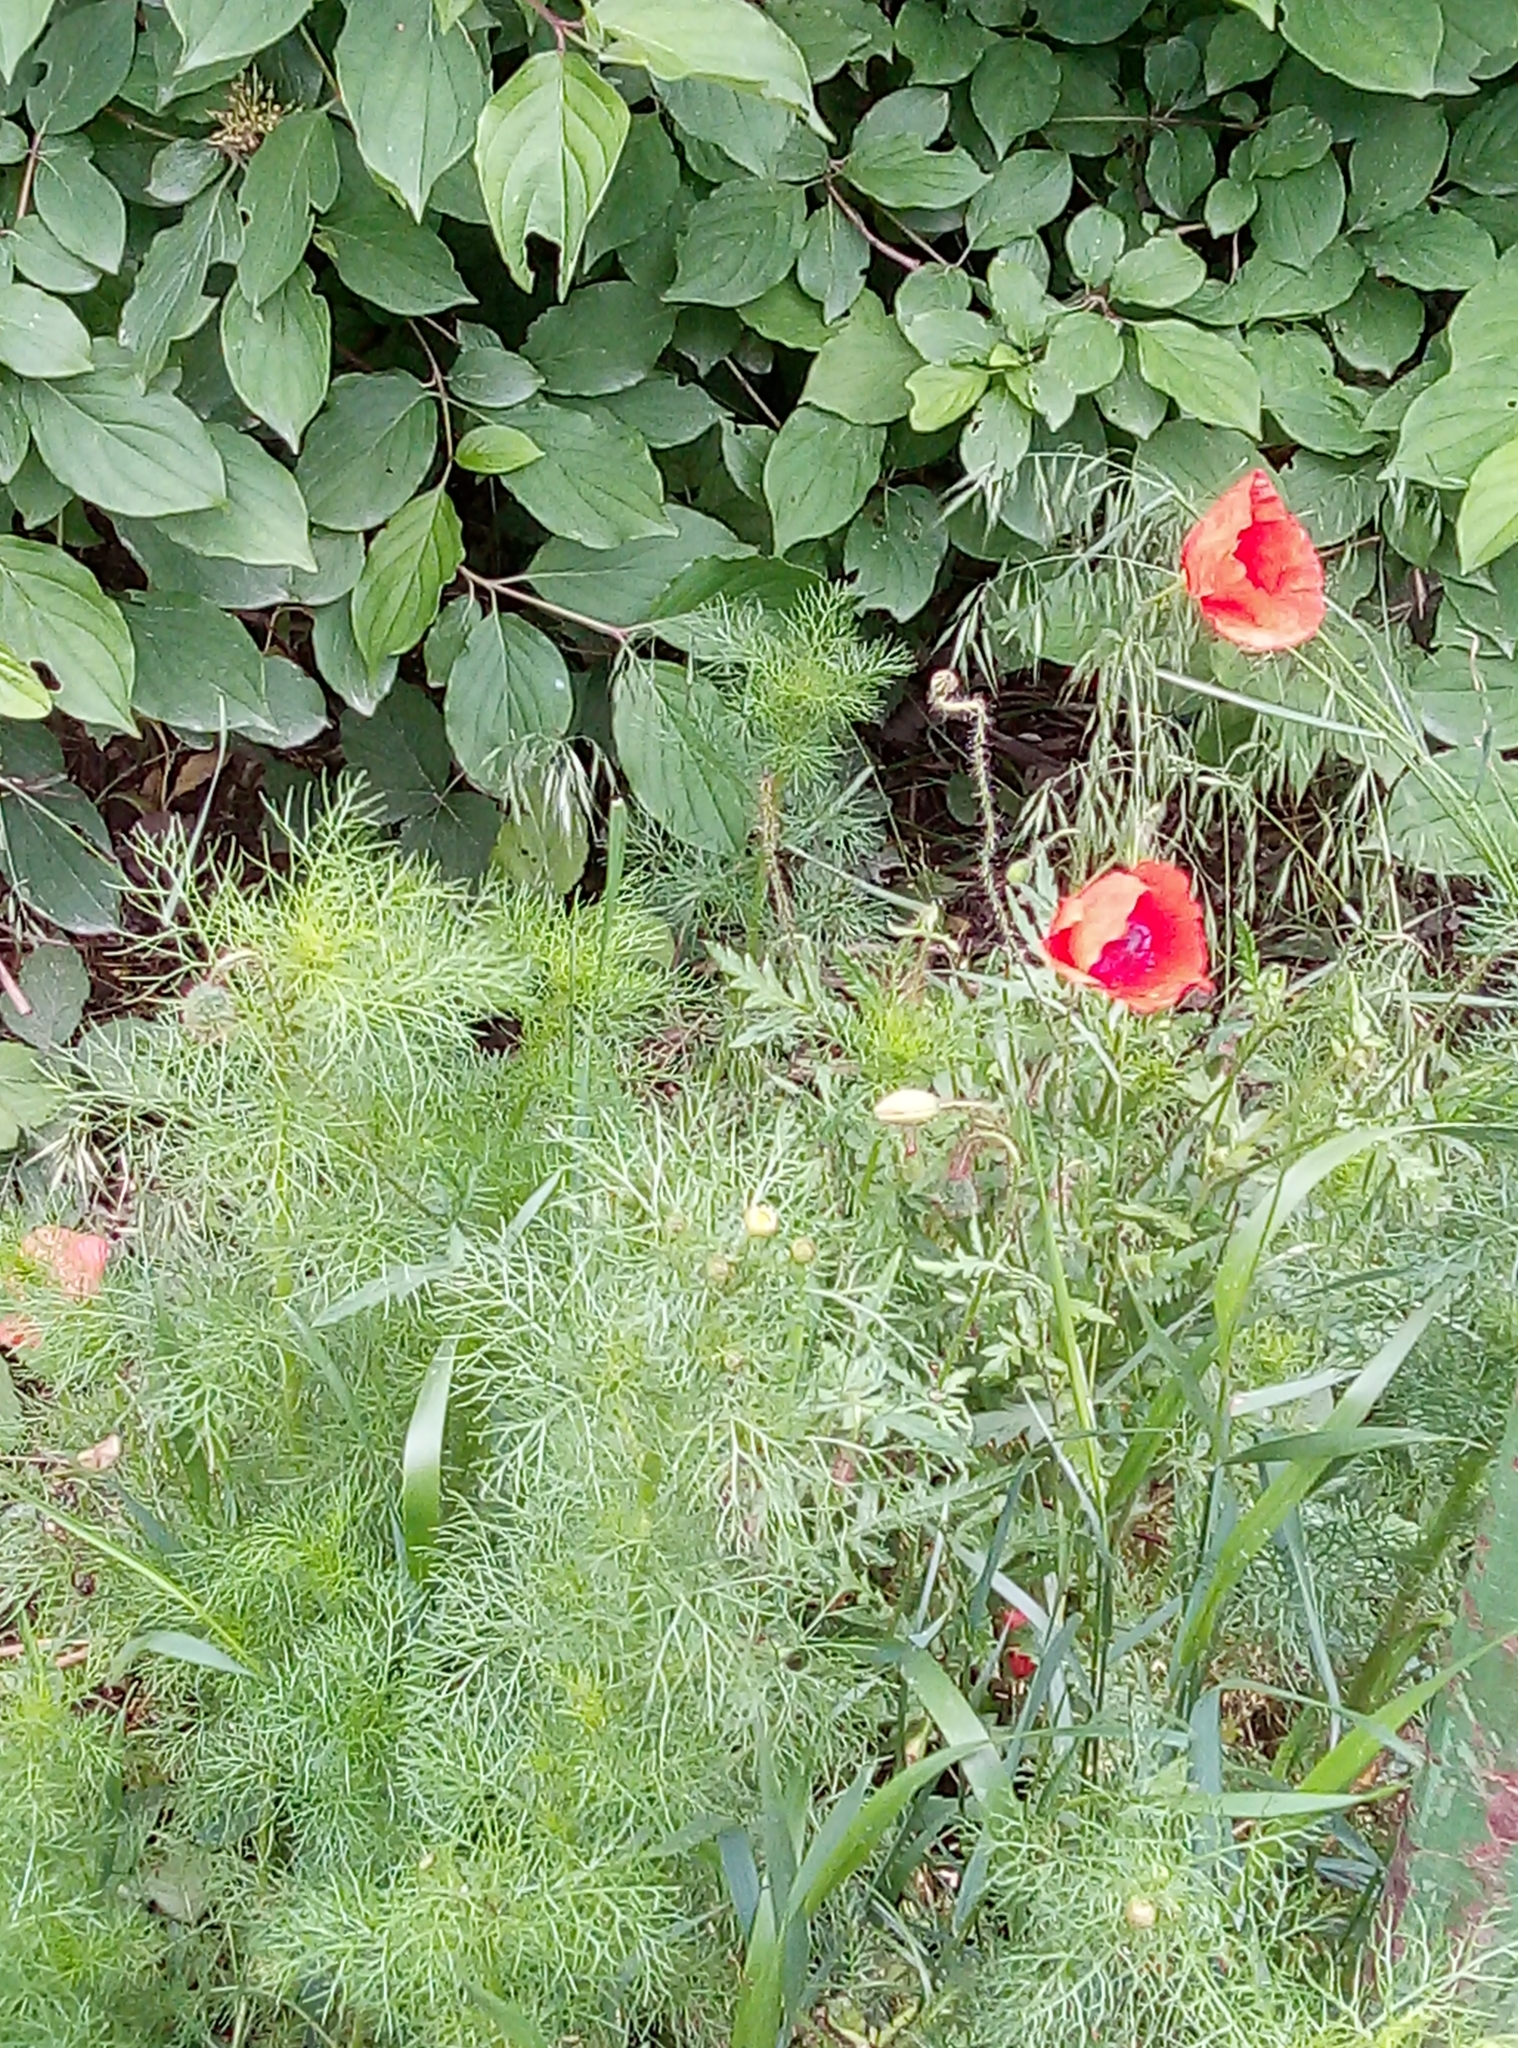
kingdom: Plantae
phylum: Tracheophyta
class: Magnoliopsida
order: Ranunculales
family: Papaveraceae
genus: Papaver
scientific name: Papaver rhoeas
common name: Corn poppy
